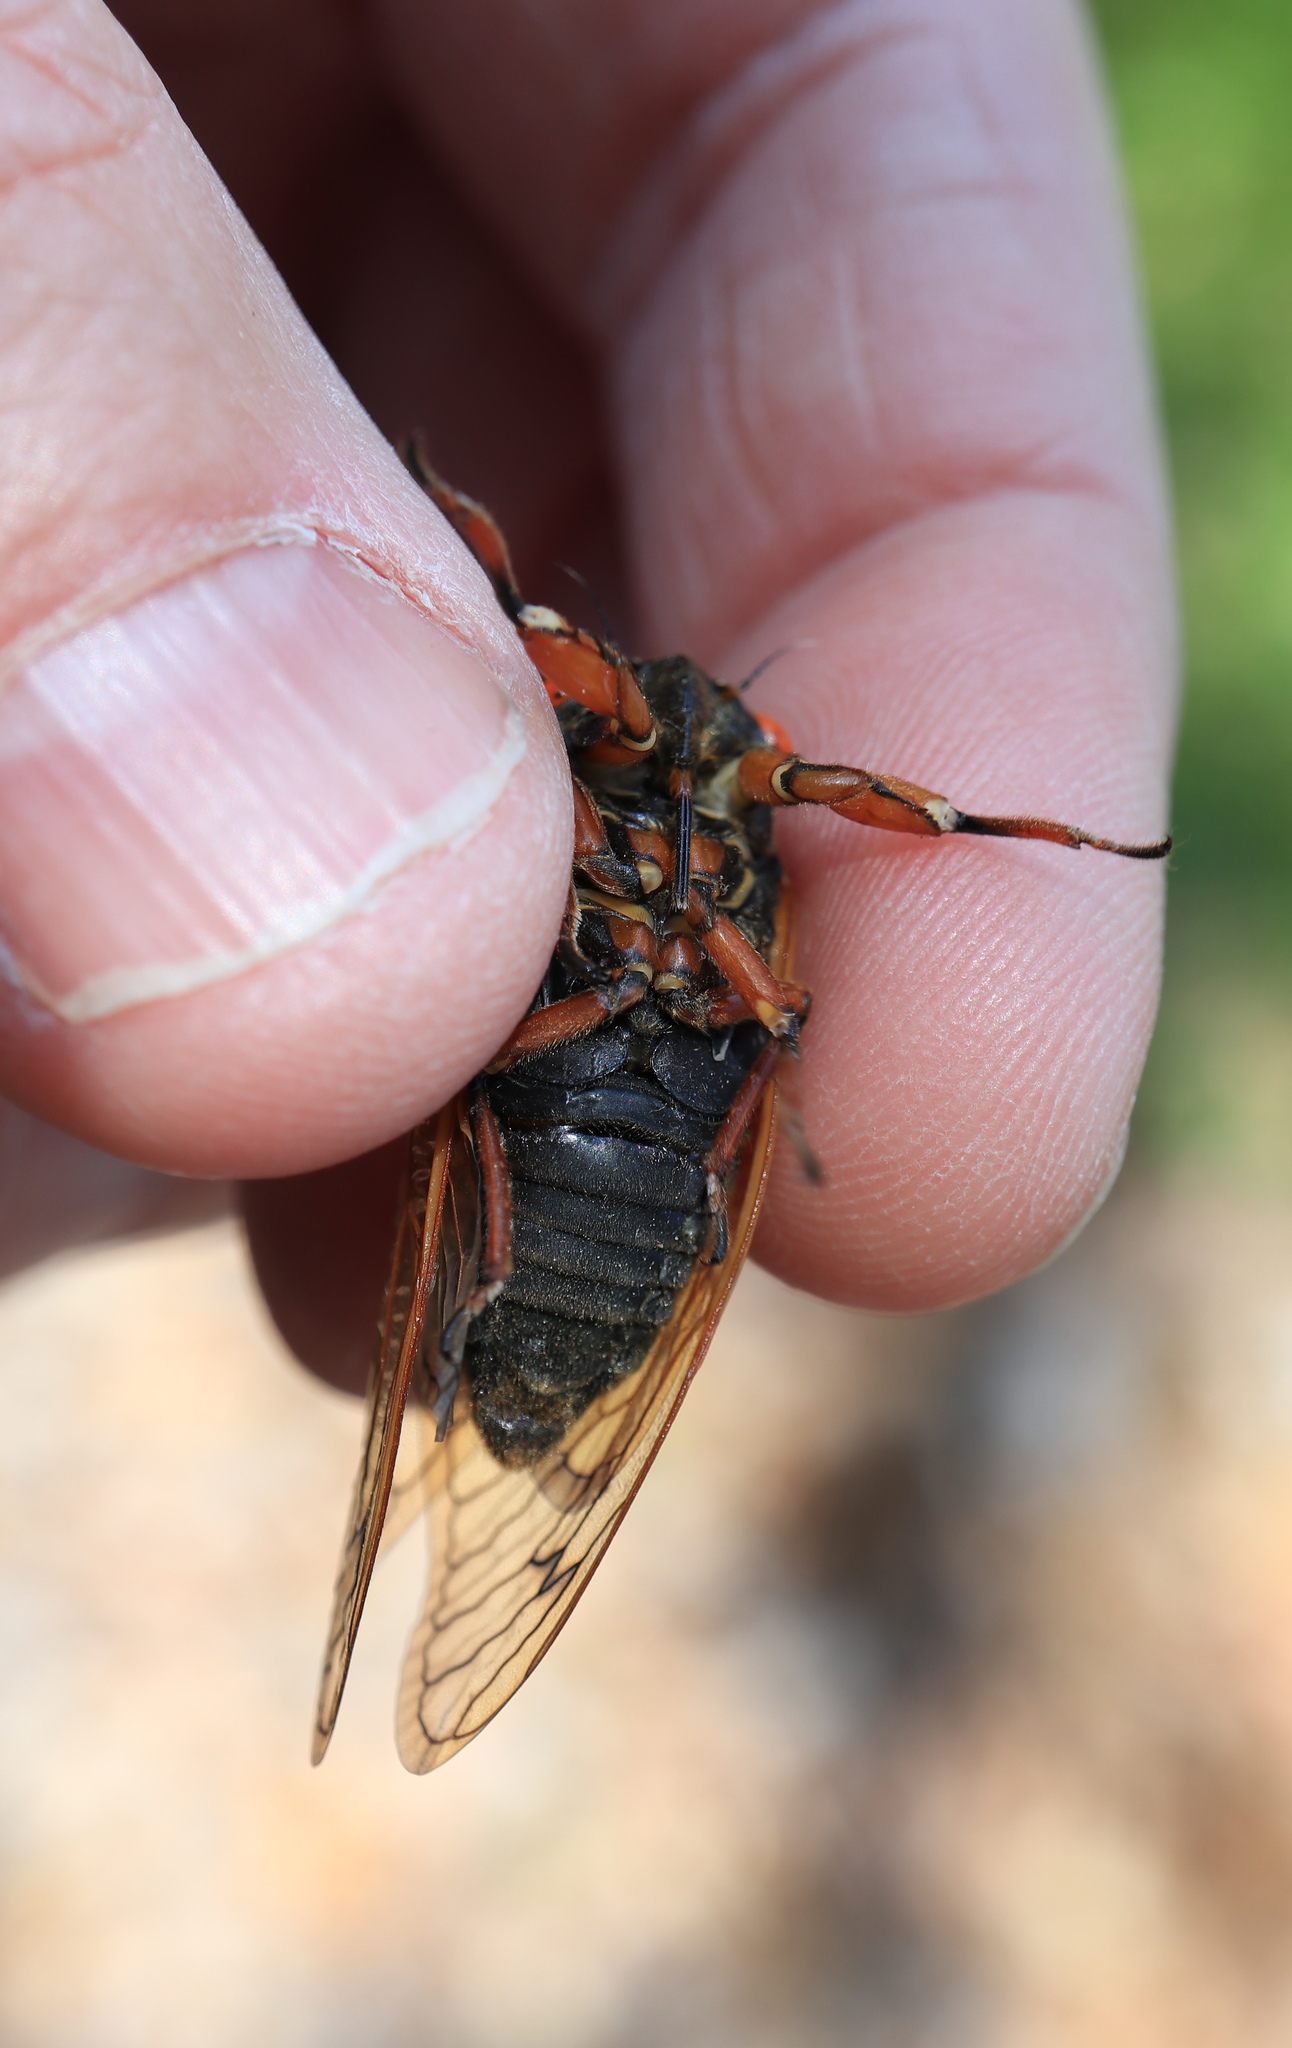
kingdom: Animalia
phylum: Arthropoda
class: Insecta
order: Hemiptera
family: Cicadidae
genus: Magicicada
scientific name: Magicicada cassini
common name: Cassin's 17-year cicada
